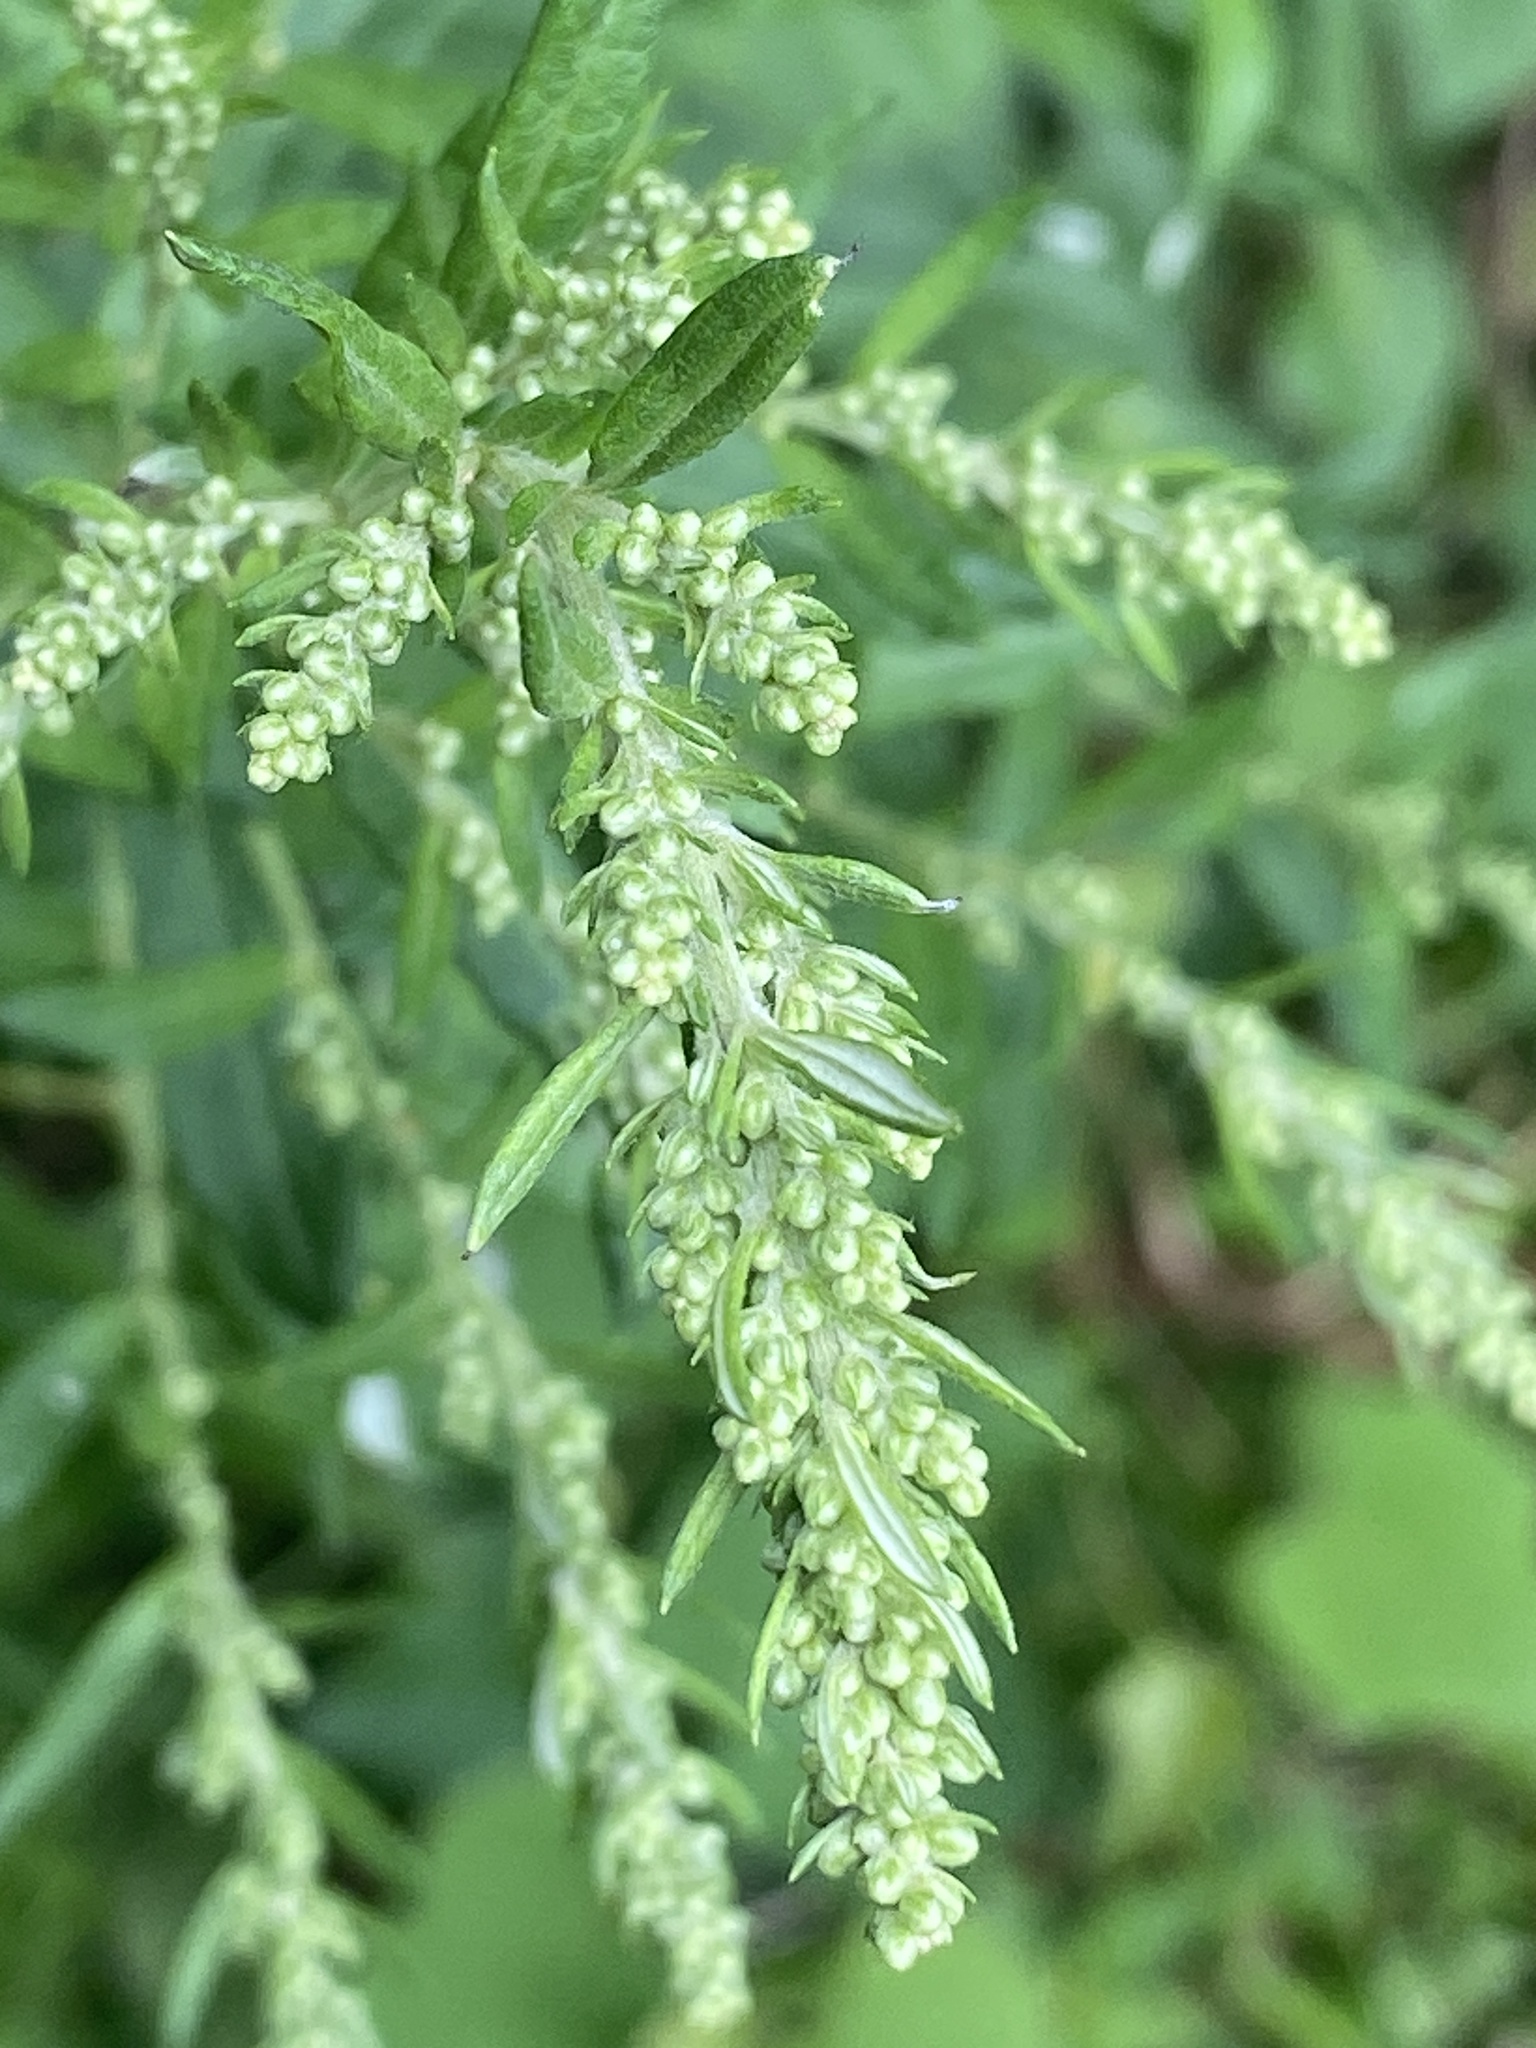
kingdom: Plantae
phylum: Tracheophyta
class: Magnoliopsida
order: Asterales
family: Asteraceae
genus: Artemisia
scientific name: Artemisia vulgaris
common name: Mugwort
